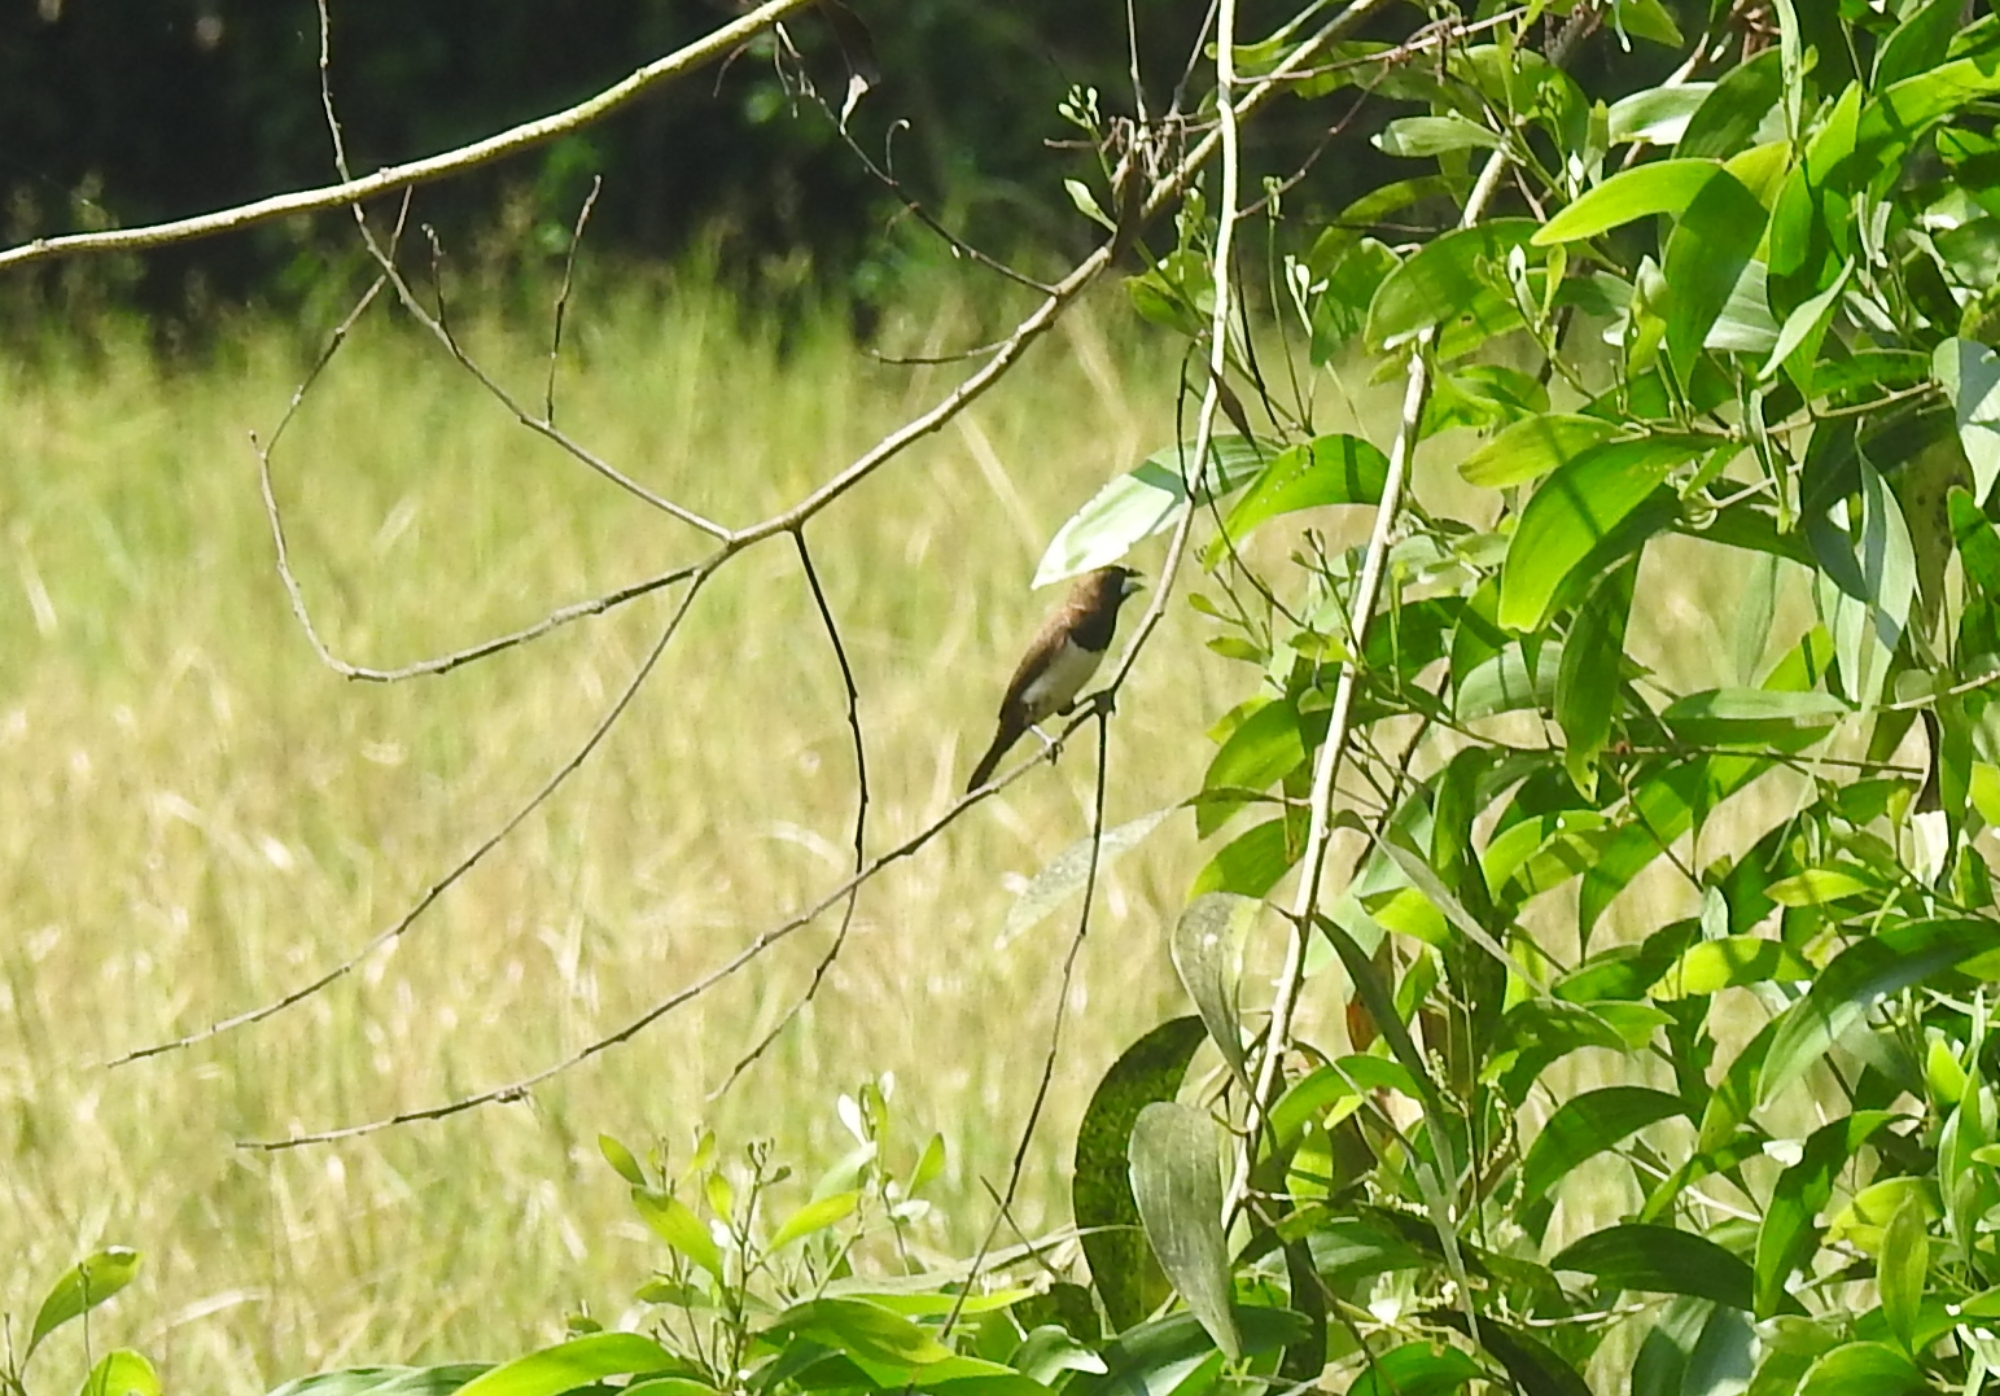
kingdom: Animalia
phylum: Chordata
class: Aves
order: Passeriformes
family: Estrildidae
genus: Lonchura
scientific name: Lonchura striata
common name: White-rumped munia
